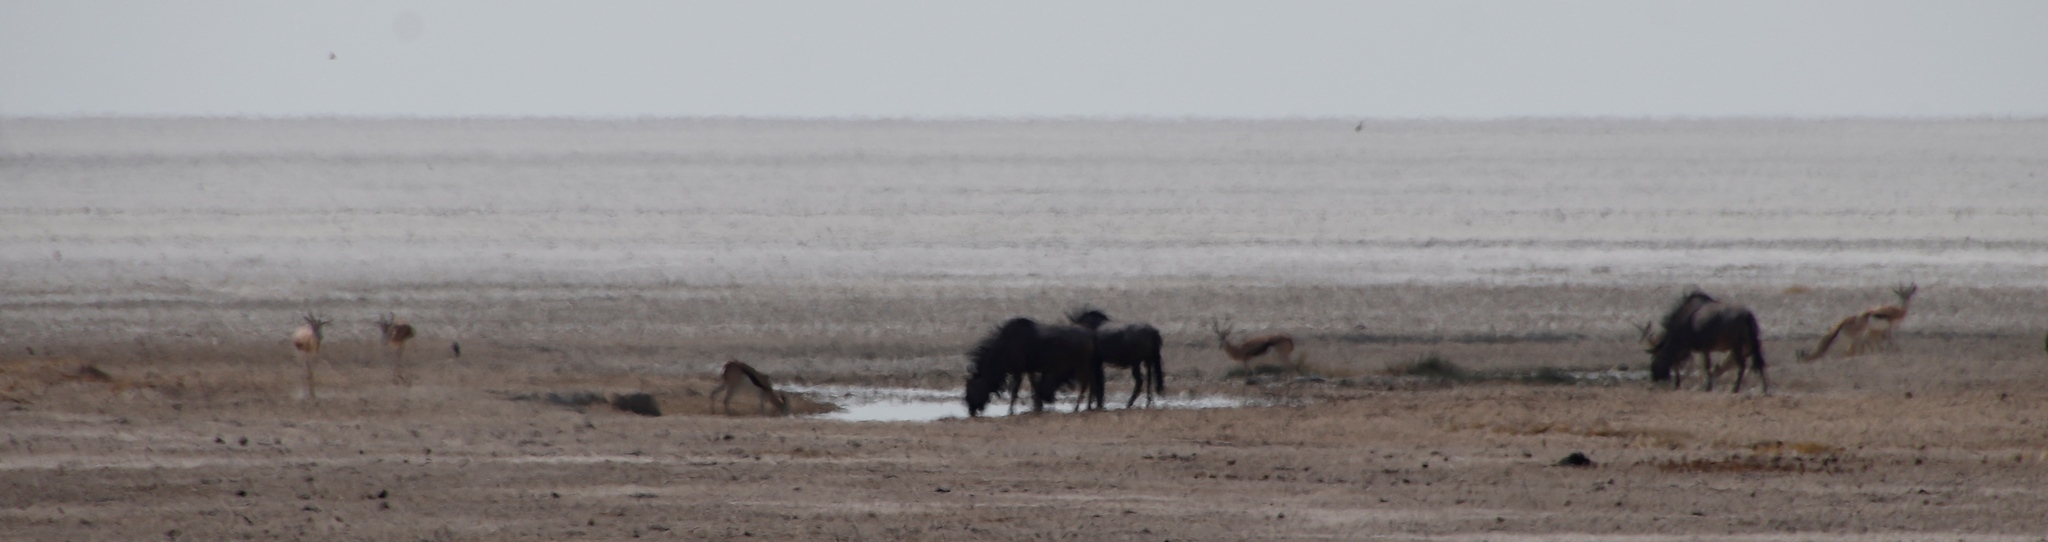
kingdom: Animalia
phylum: Chordata
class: Mammalia
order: Artiodactyla
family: Bovidae
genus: Connochaetes
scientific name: Connochaetes taurinus
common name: Blue wildebeest
